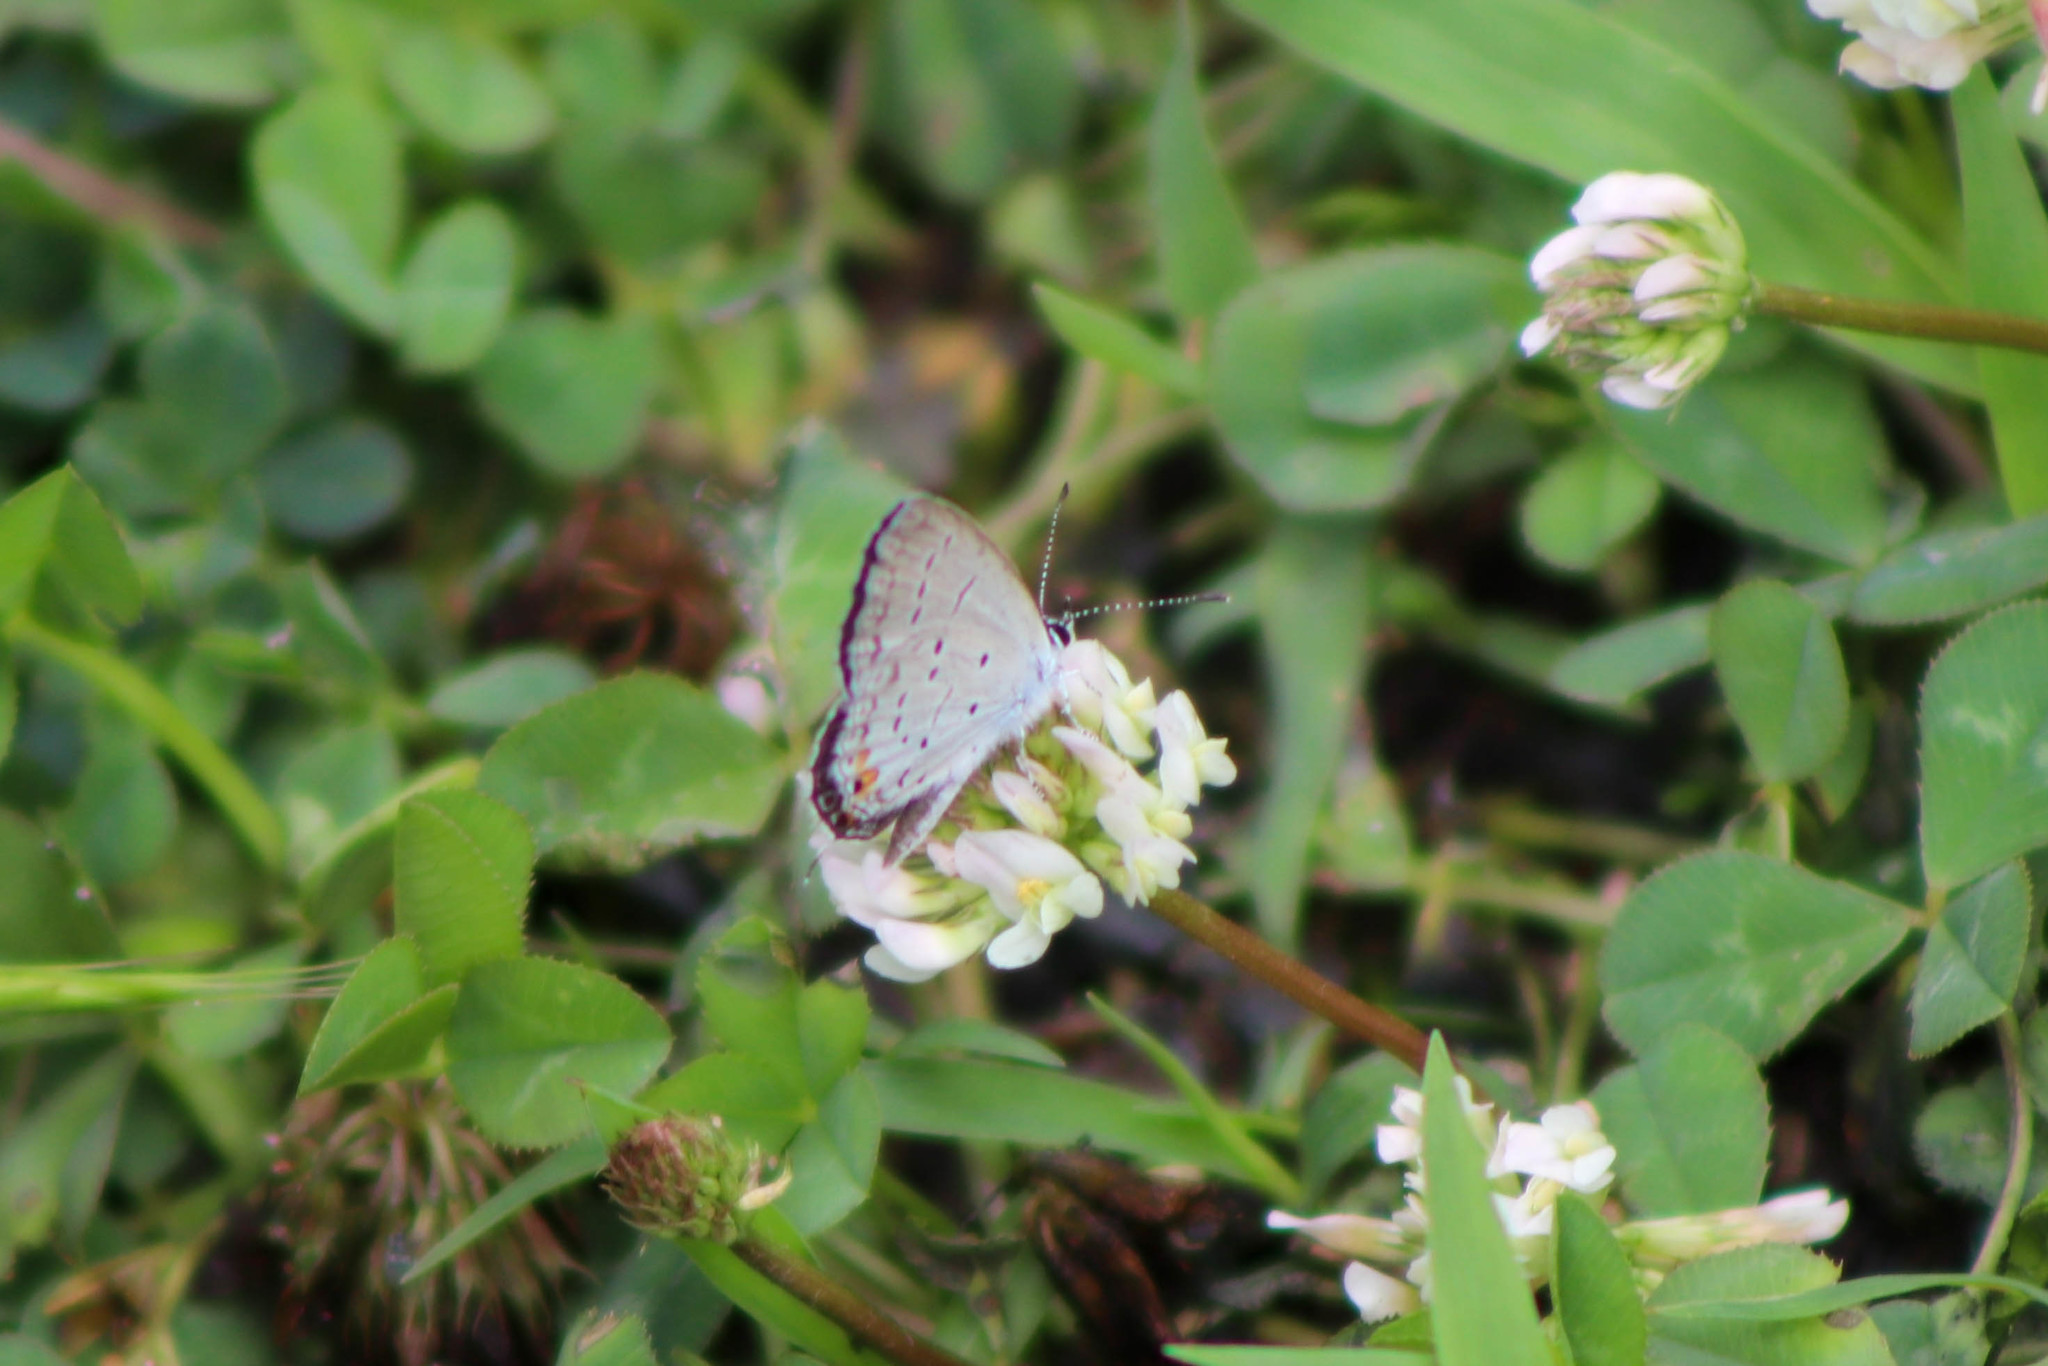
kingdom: Animalia
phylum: Arthropoda
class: Insecta
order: Lepidoptera
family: Lycaenidae
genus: Elkalyce
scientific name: Elkalyce comyntas
